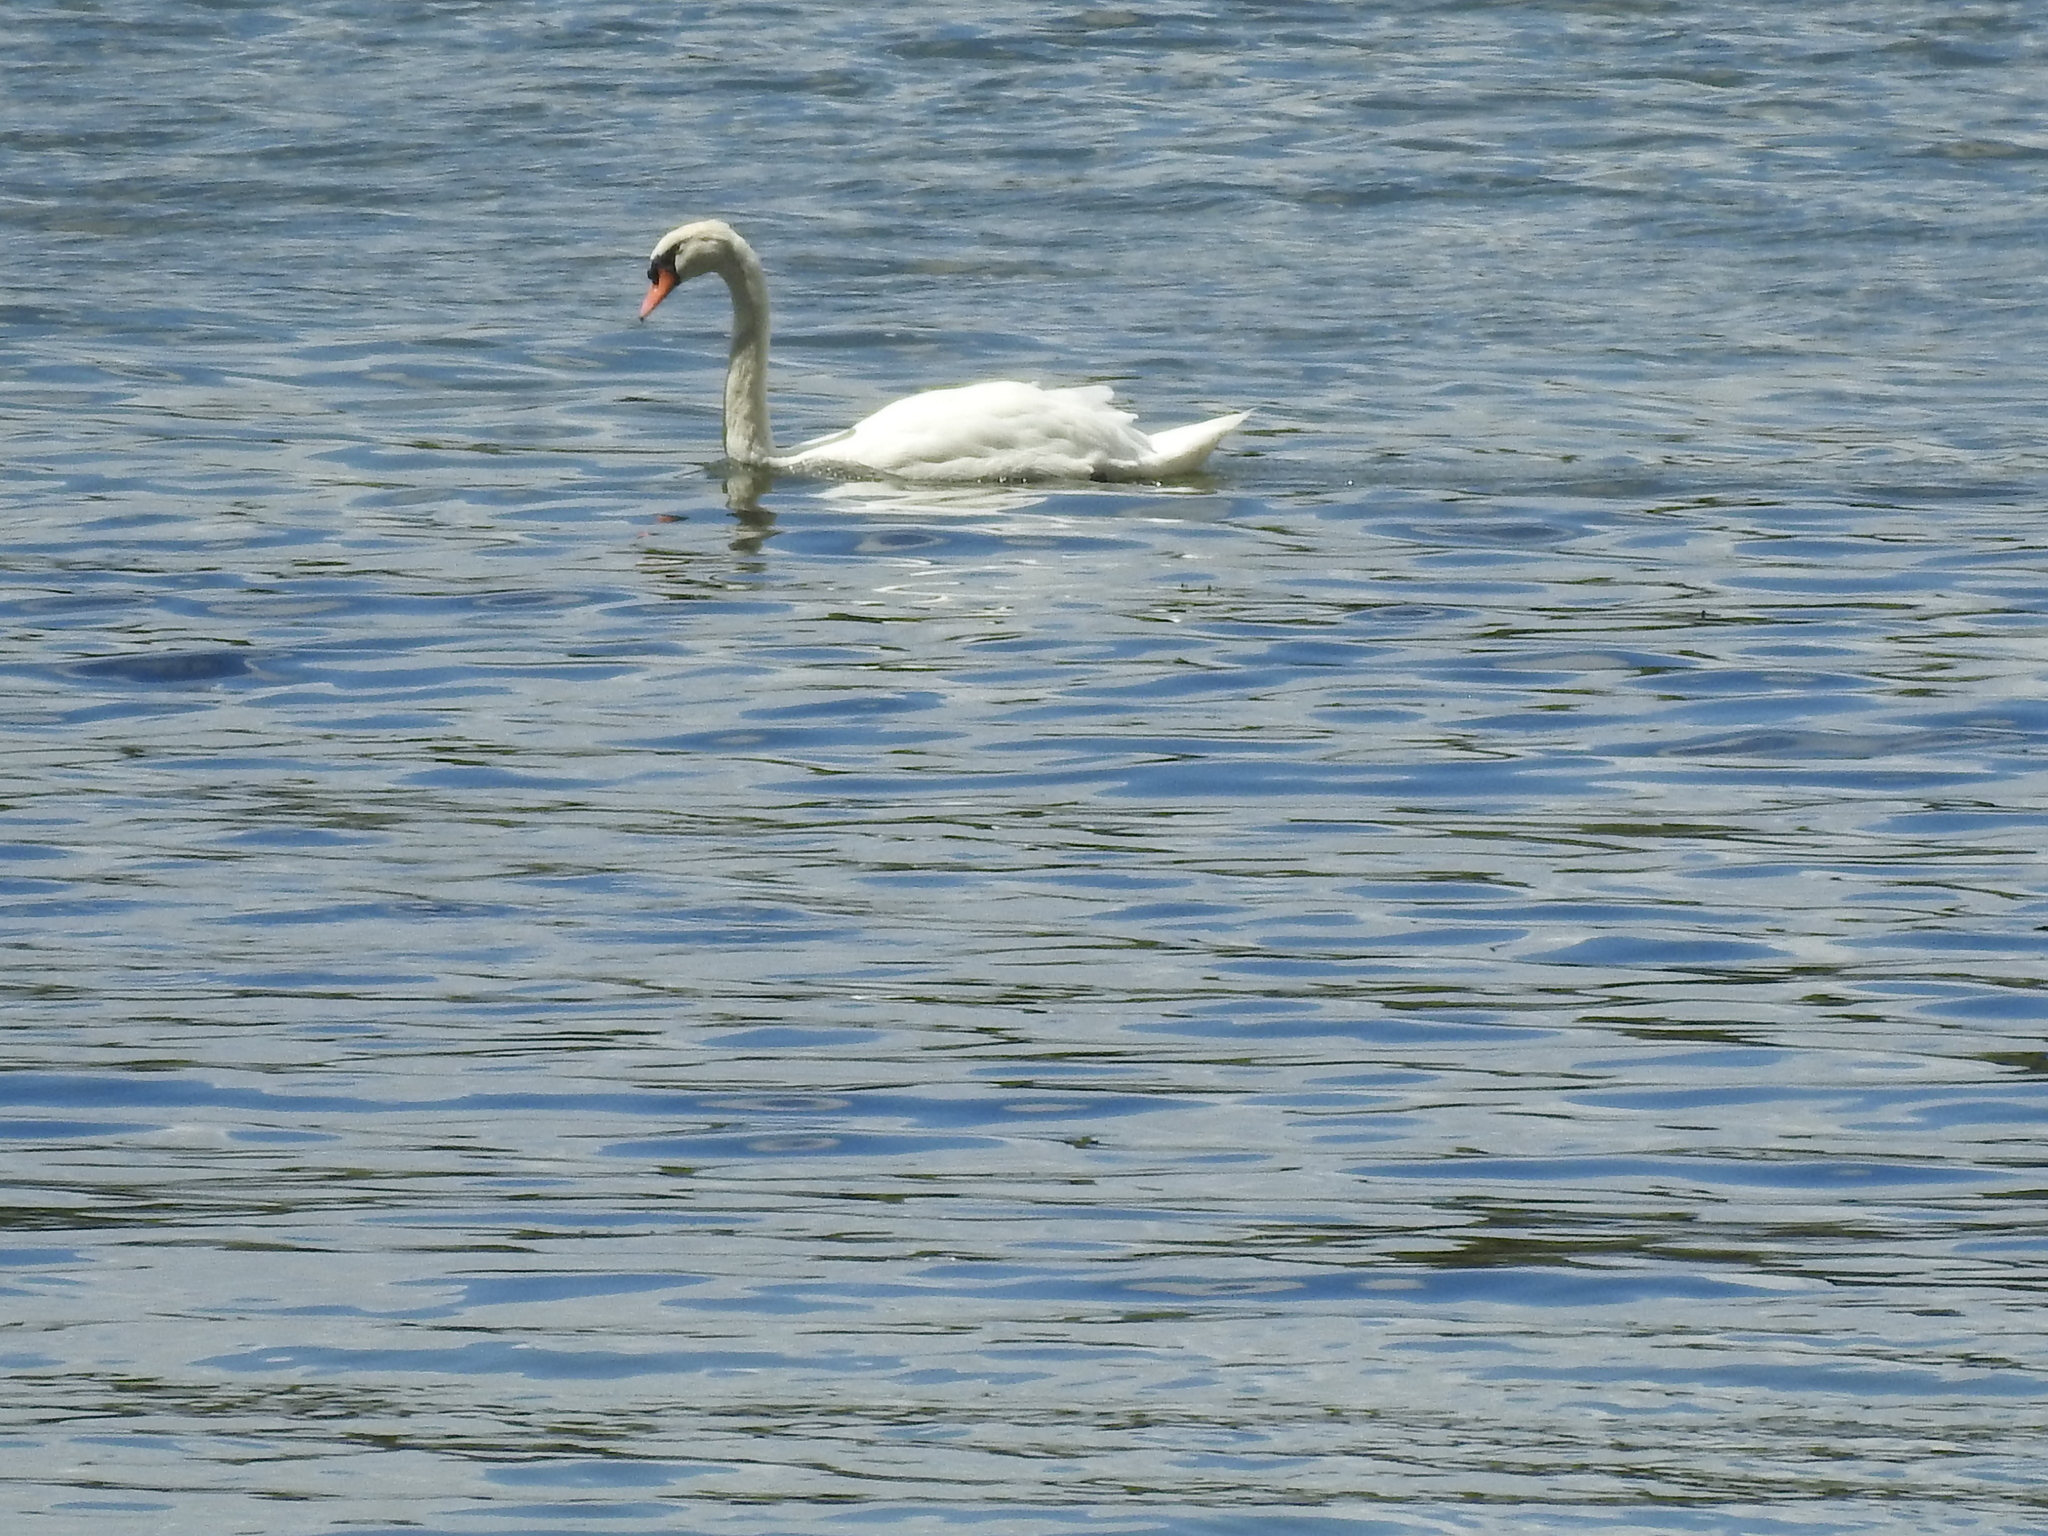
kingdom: Animalia
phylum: Chordata
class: Aves
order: Anseriformes
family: Anatidae
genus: Cygnus
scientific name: Cygnus olor
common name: Mute swan
